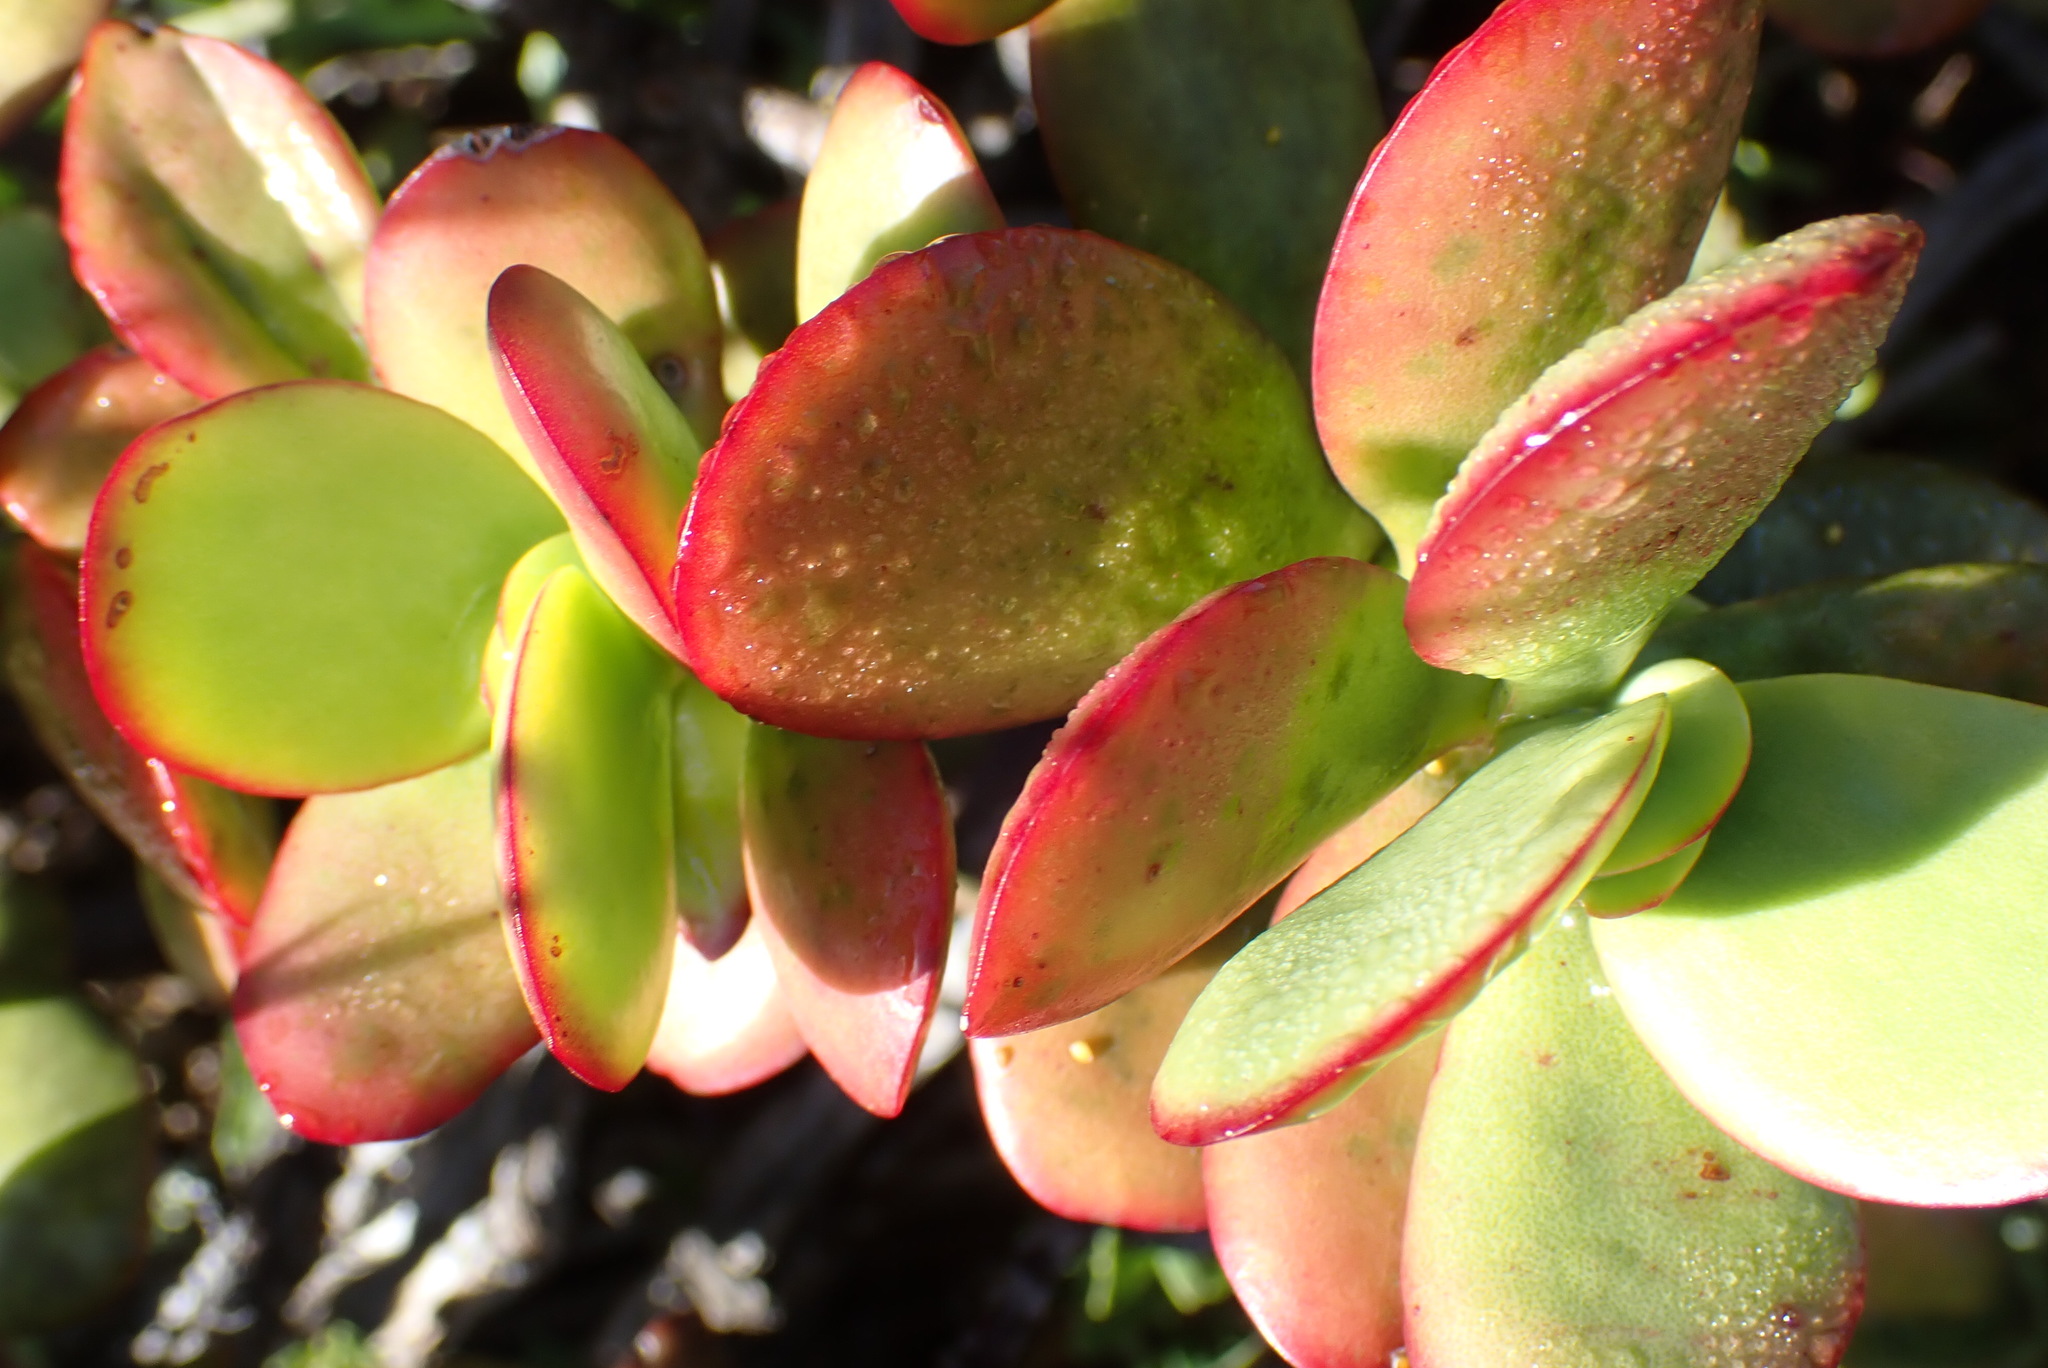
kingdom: Plantae
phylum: Tracheophyta
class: Magnoliopsida
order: Saxifragales
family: Crassulaceae
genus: Crassula
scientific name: Crassula cultrata
